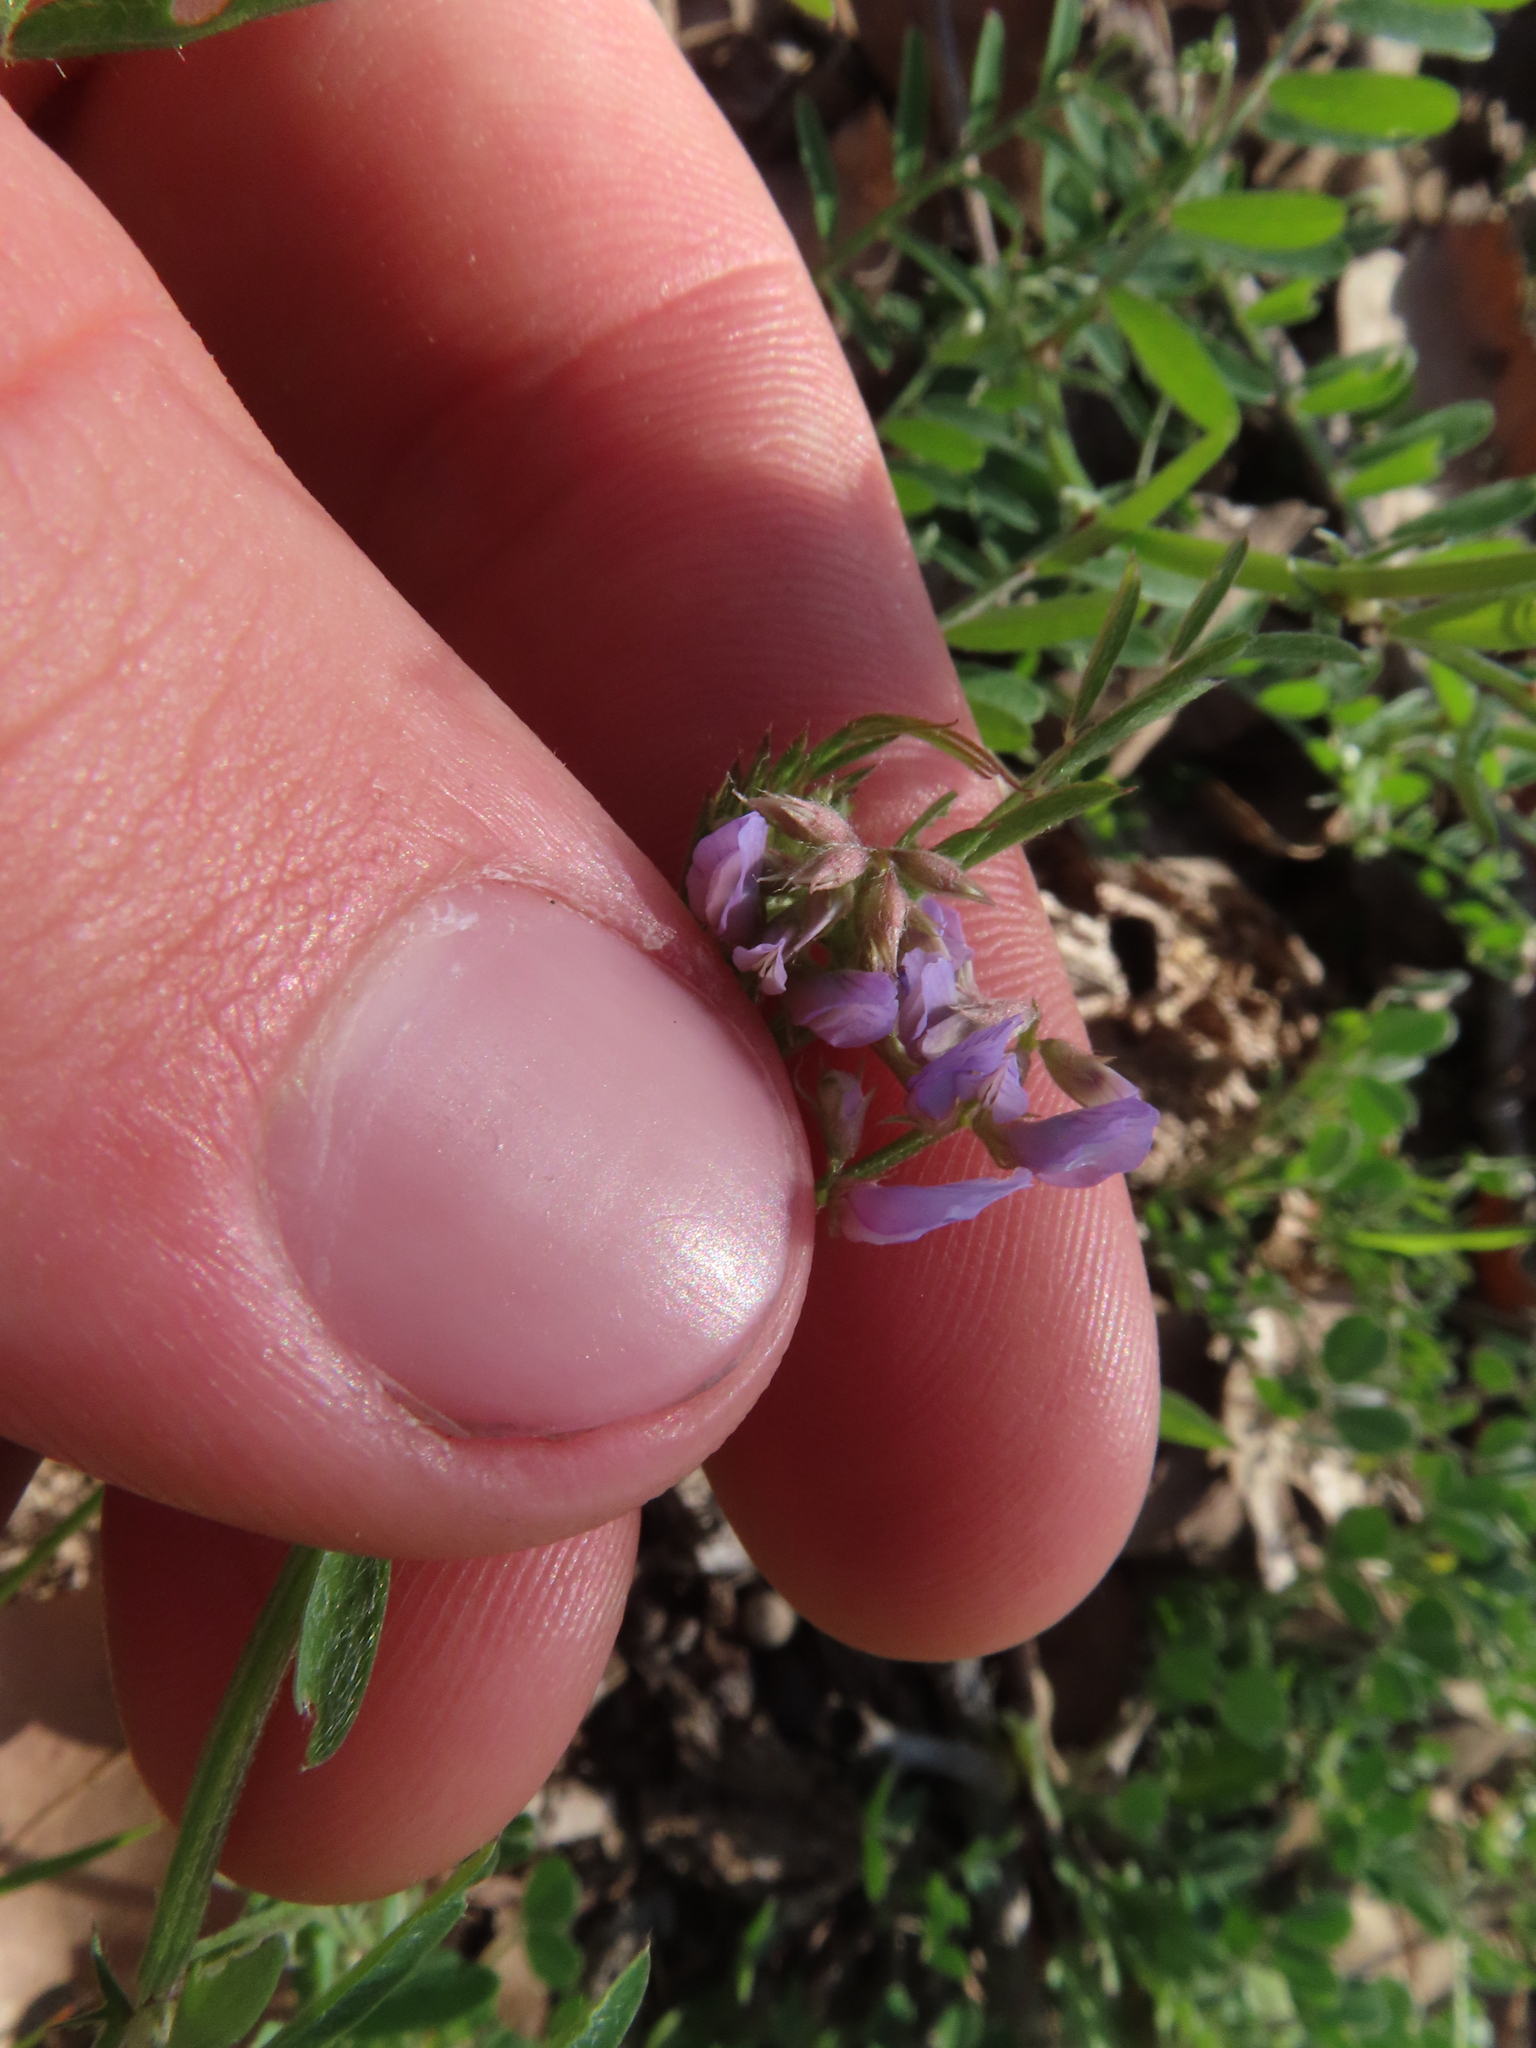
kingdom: Plantae
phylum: Tracheophyta
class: Magnoliopsida
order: Fabales
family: Fabaceae
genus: Vicia
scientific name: Vicia ludoviciana
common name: Louisiana vetch
